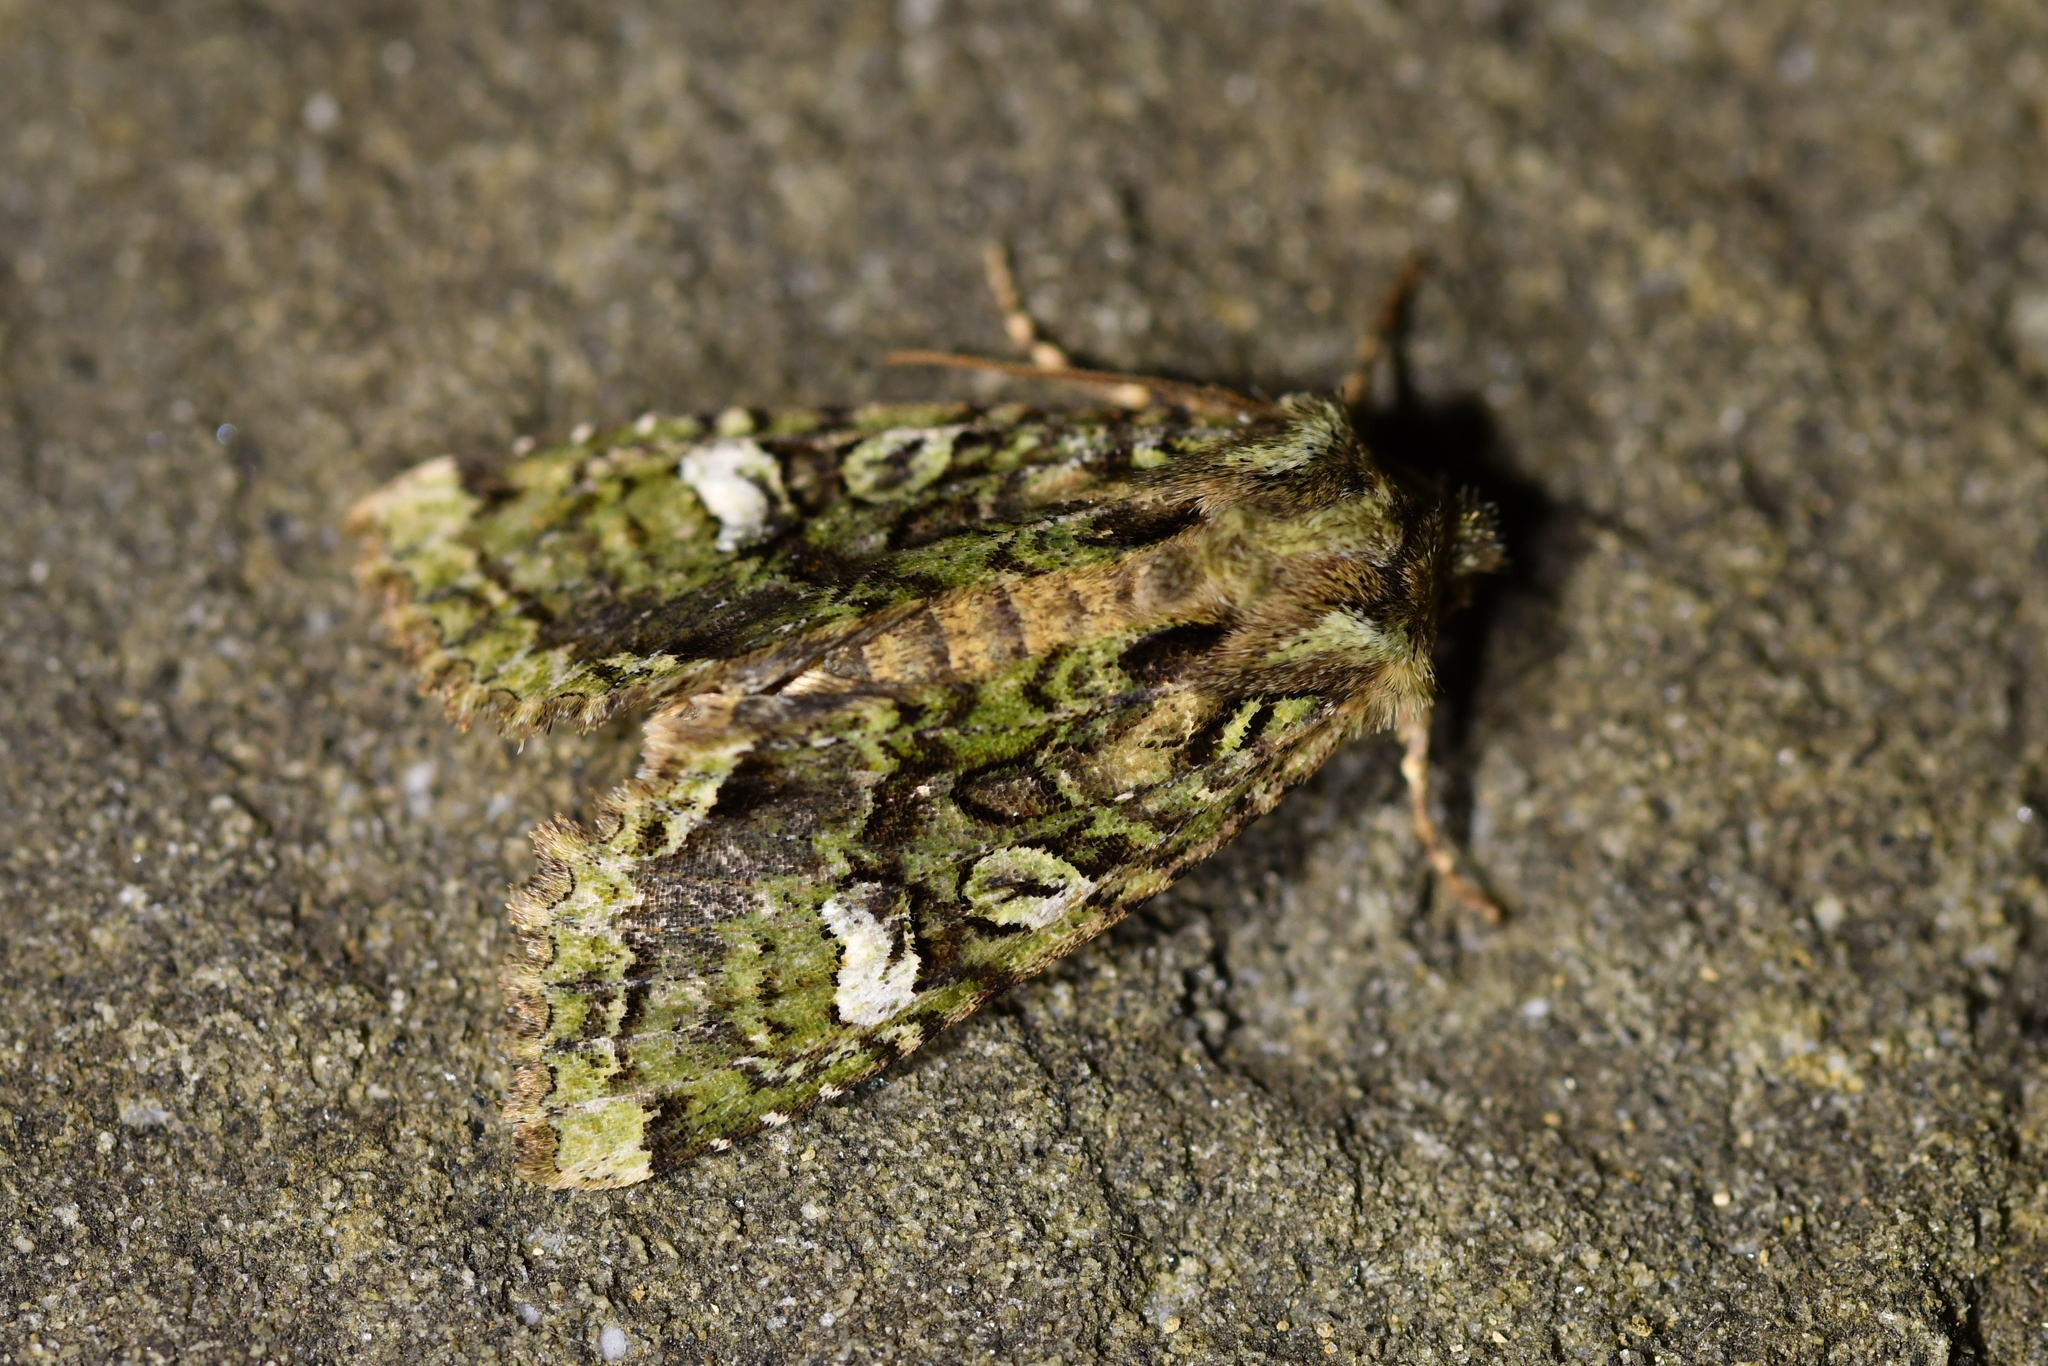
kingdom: Animalia
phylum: Arthropoda
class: Insecta
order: Lepidoptera
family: Noctuidae
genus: Ichneutica
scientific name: Ichneutica
